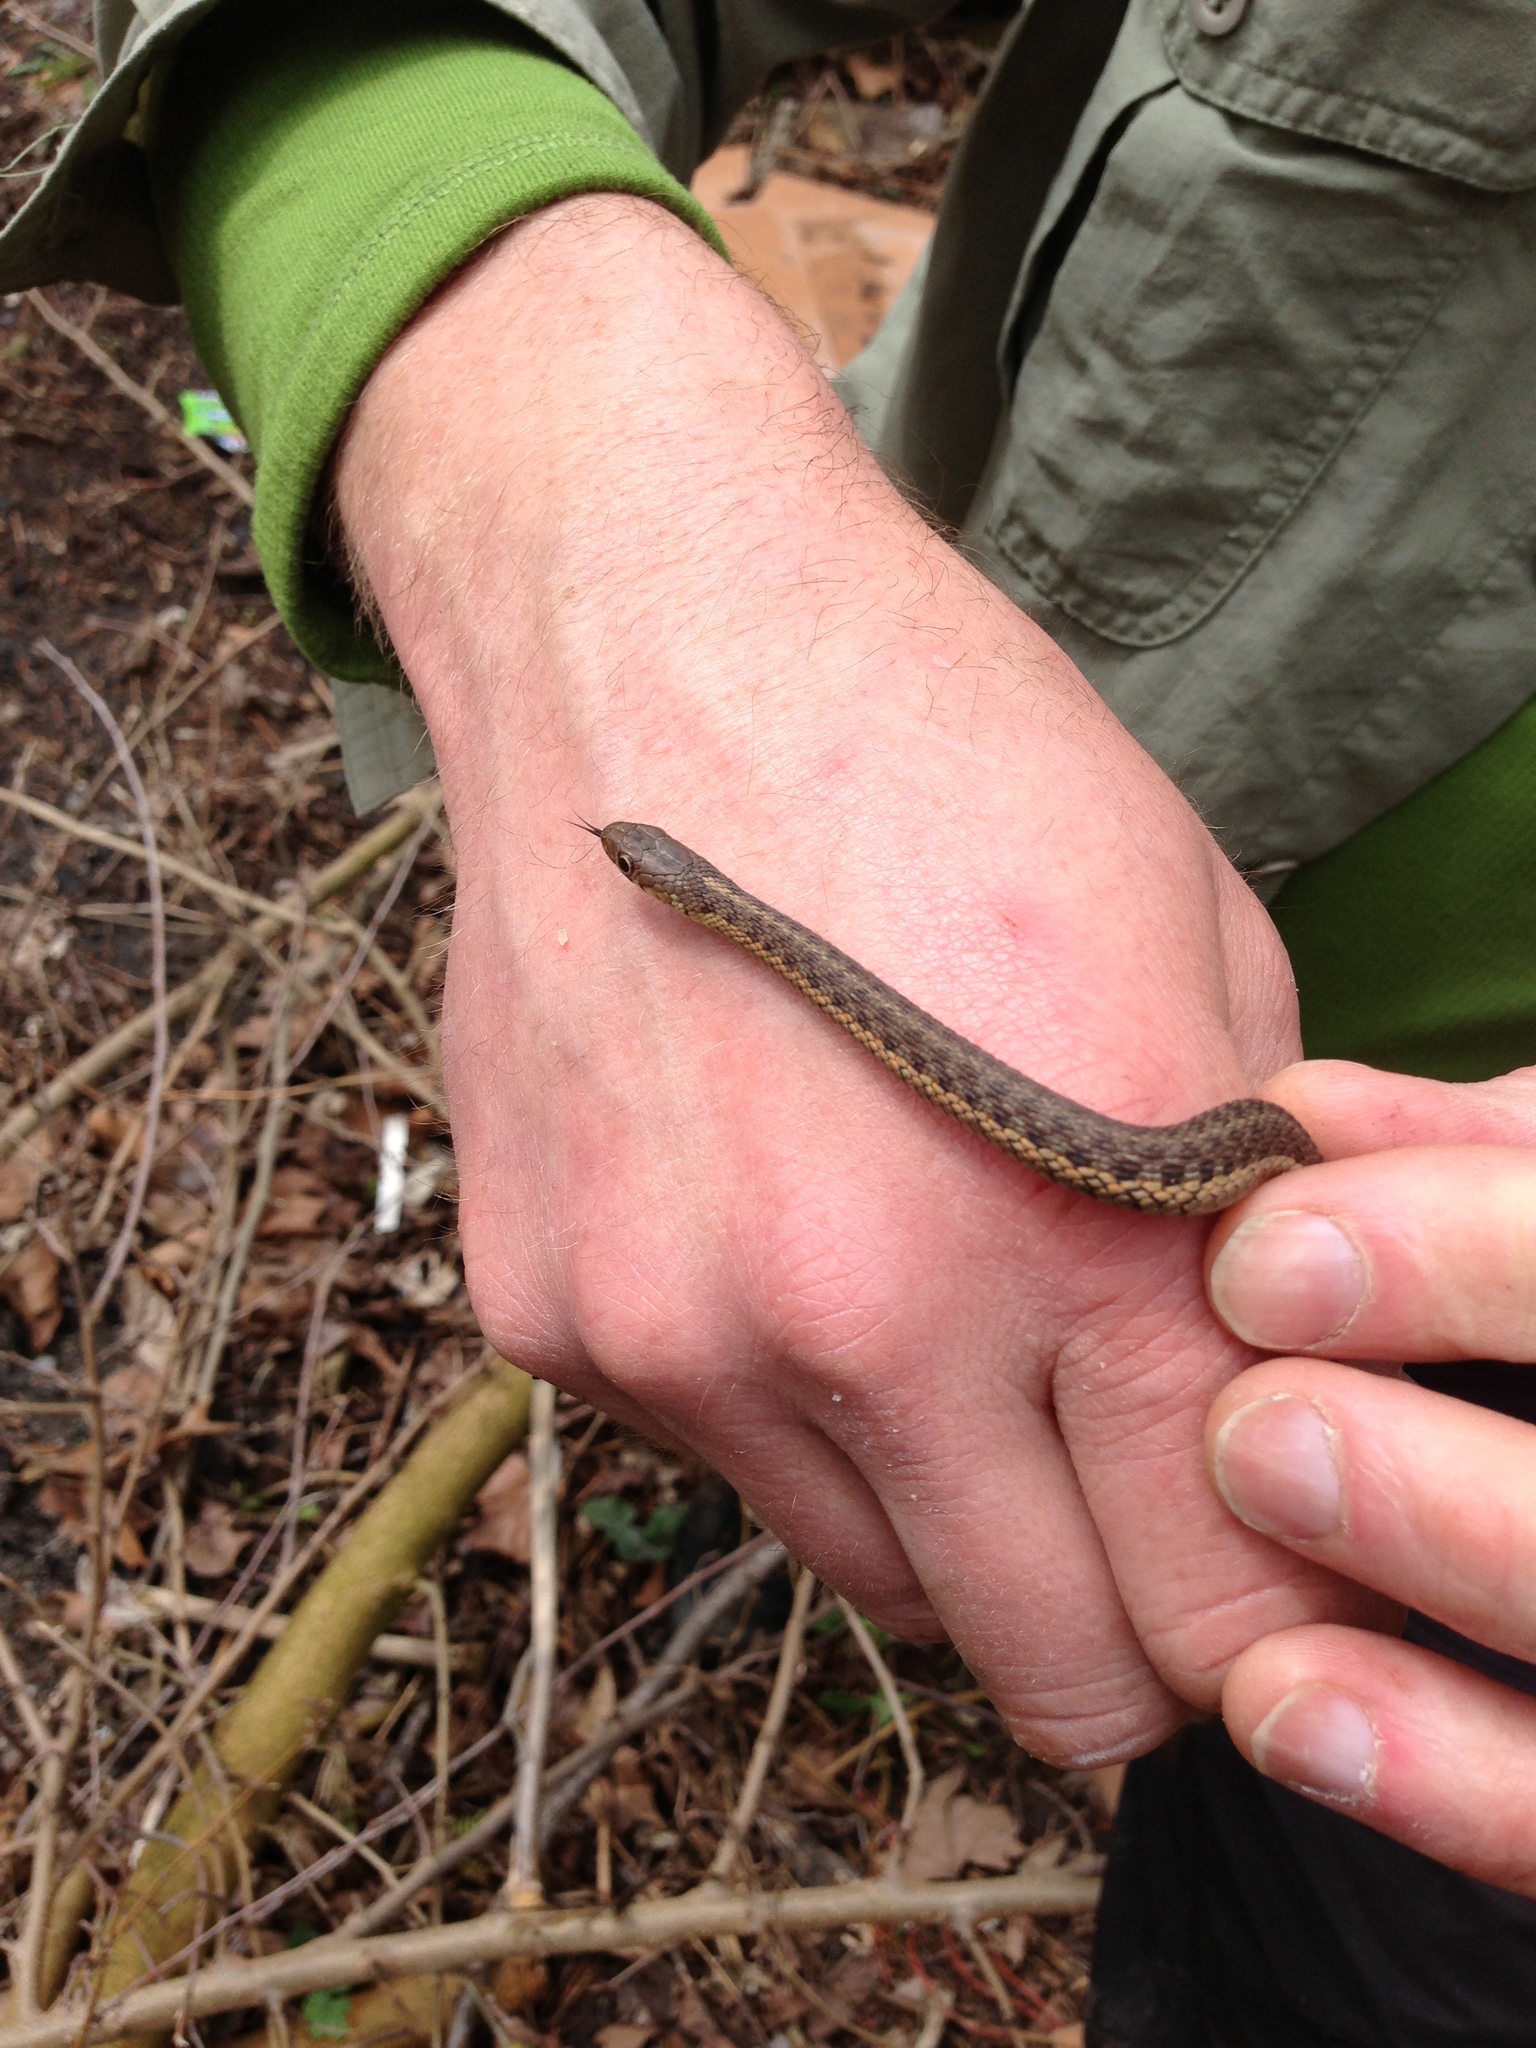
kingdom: Animalia
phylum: Chordata
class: Squamata
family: Colubridae
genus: Thamnophis
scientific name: Thamnophis sirtalis
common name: Common garter snake
